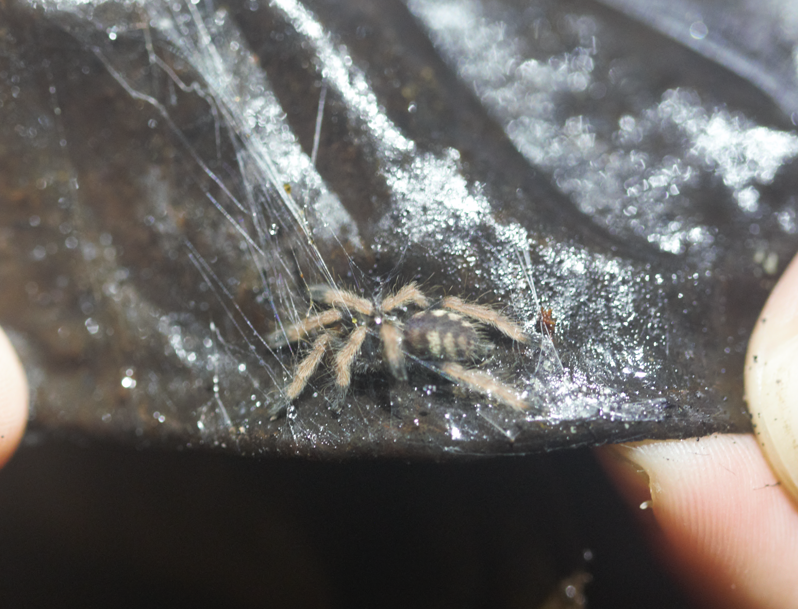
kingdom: Animalia
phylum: Arthropoda
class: Arachnida
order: Araneae
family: Theraphosidae
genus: Amazonius
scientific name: Amazonius germani
